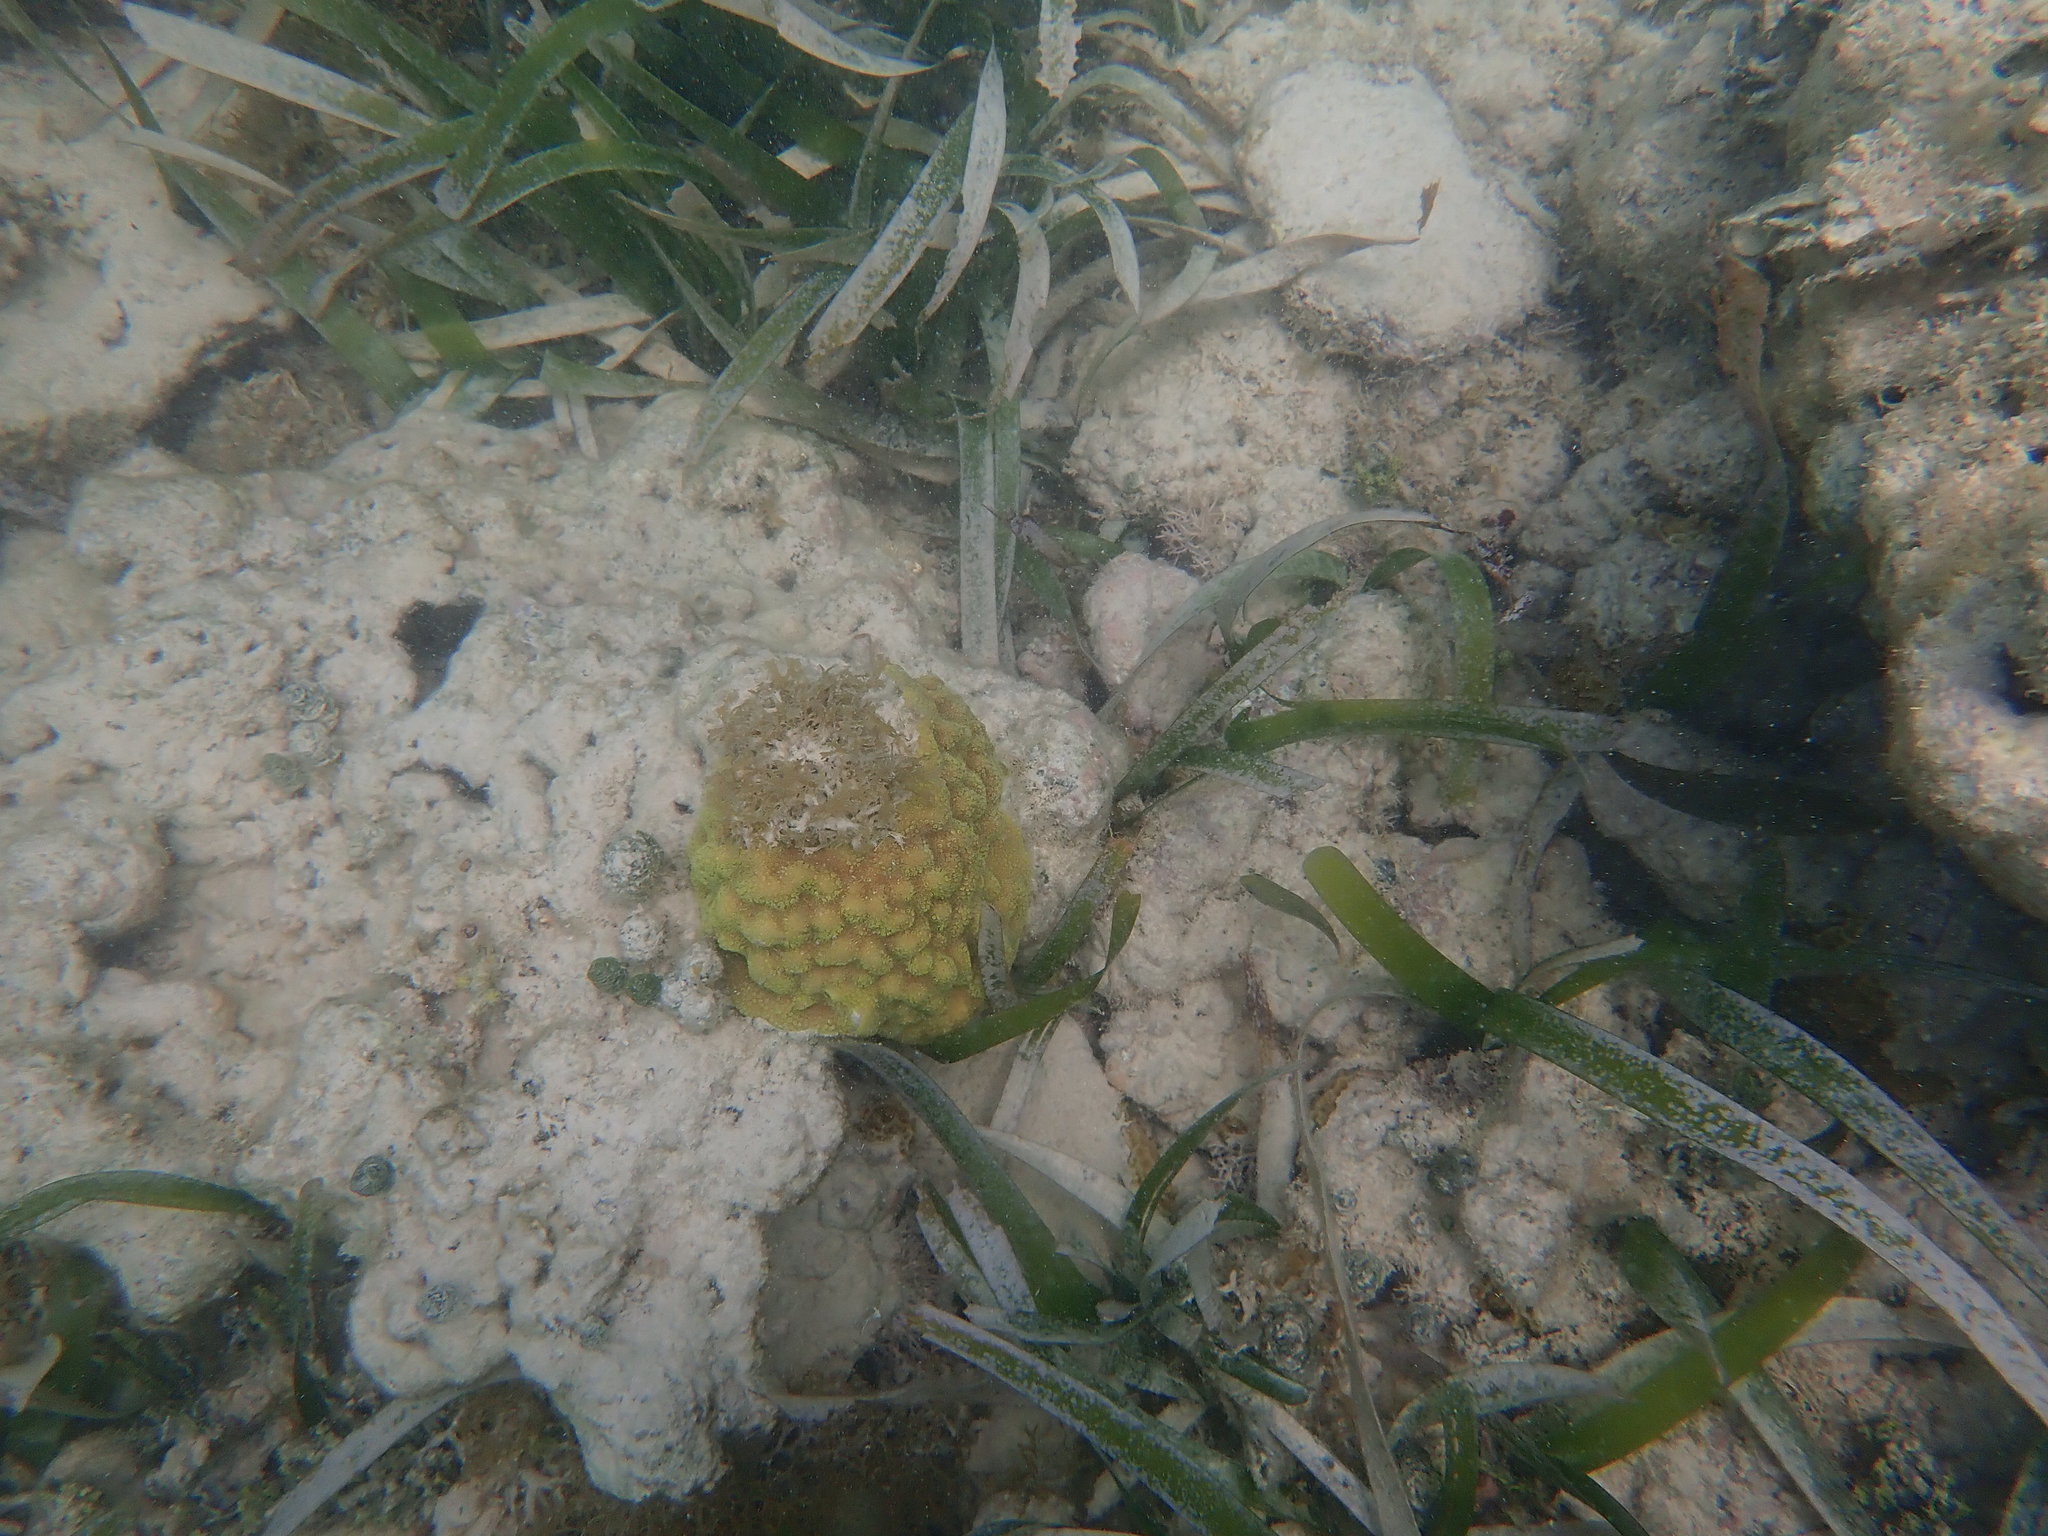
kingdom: Animalia
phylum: Cnidaria
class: Anthozoa
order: Scleractinia
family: Poritidae
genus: Porites
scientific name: Porites astreoides
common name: Mustard hill coral
